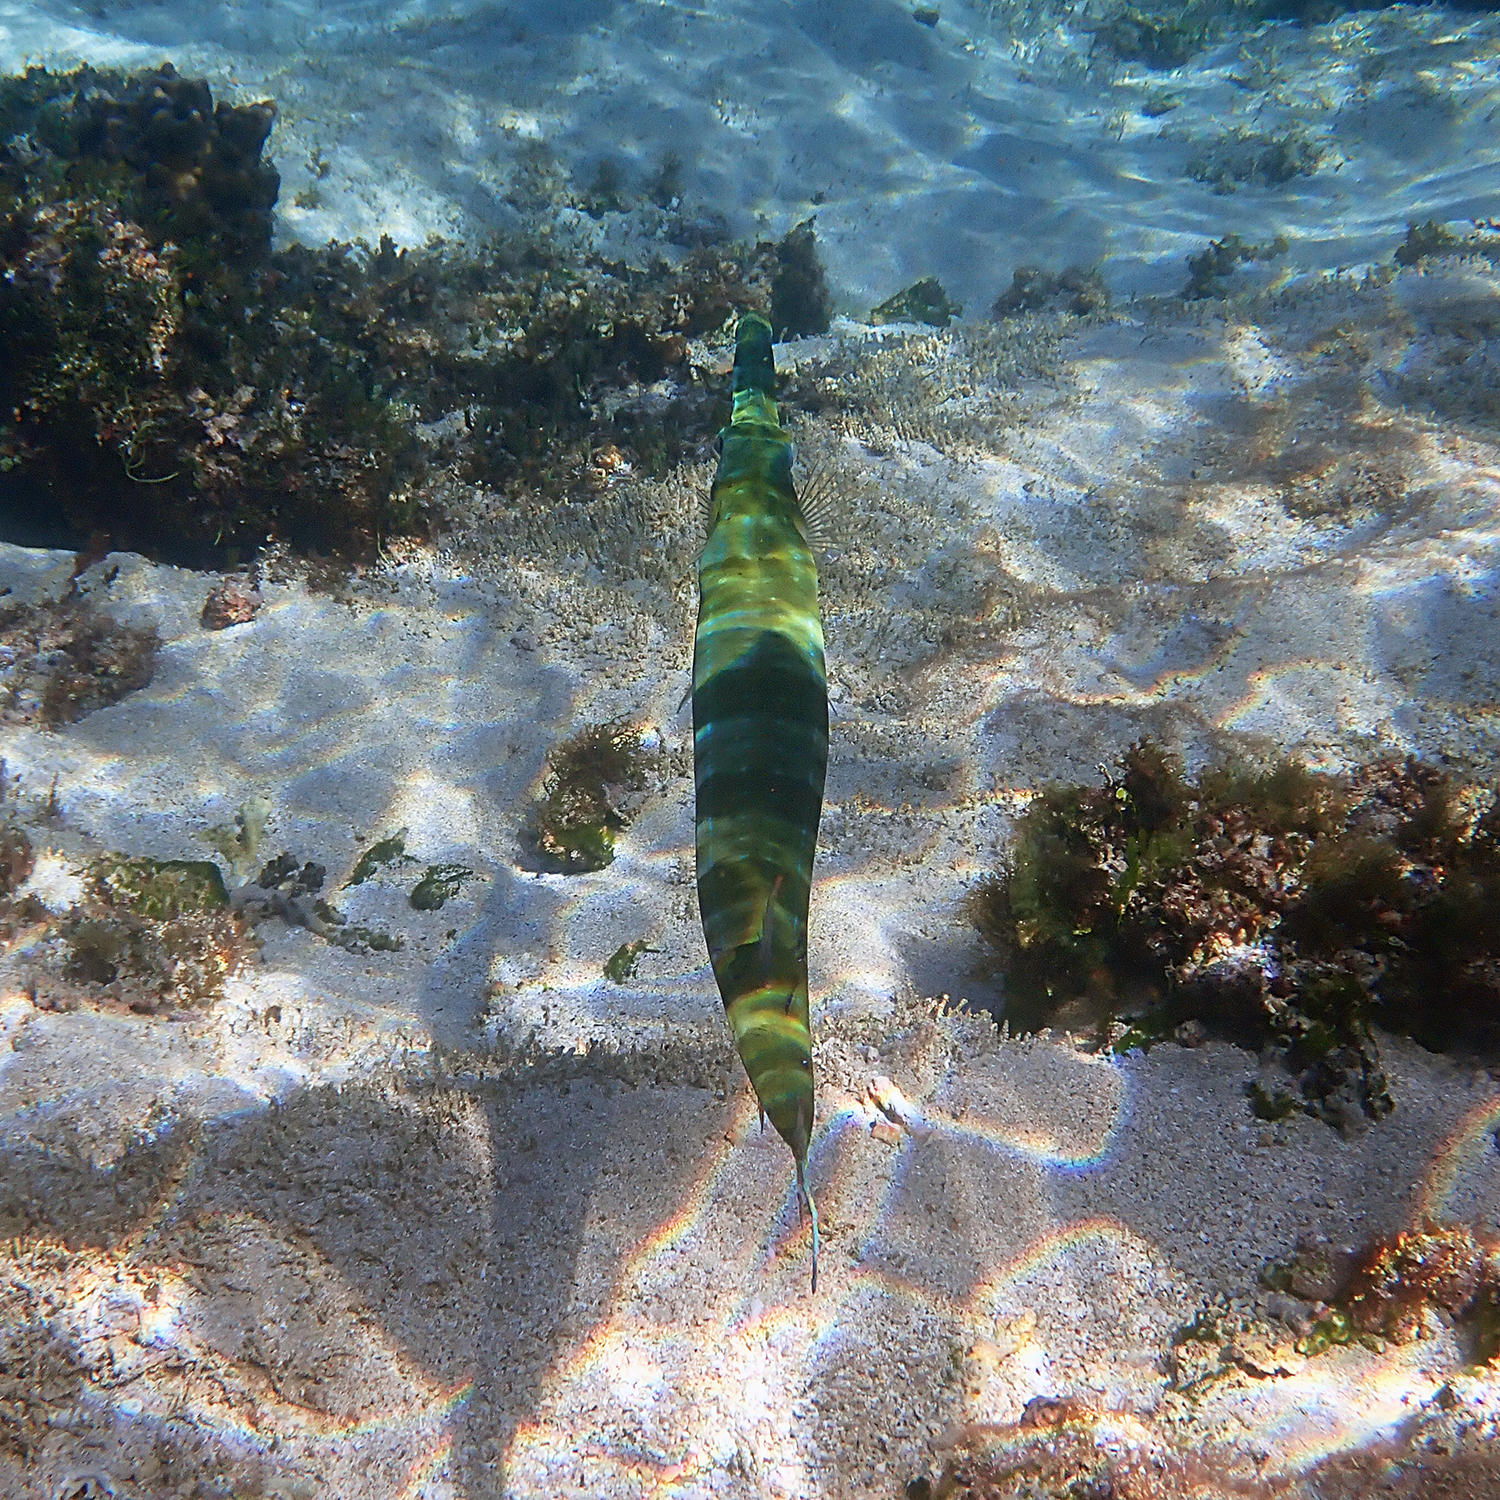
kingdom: Animalia
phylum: Chordata
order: Syngnathiformes
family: Fistulariidae
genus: Fistularia
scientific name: Fistularia commersonii
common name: Bluespotted cornetfish
